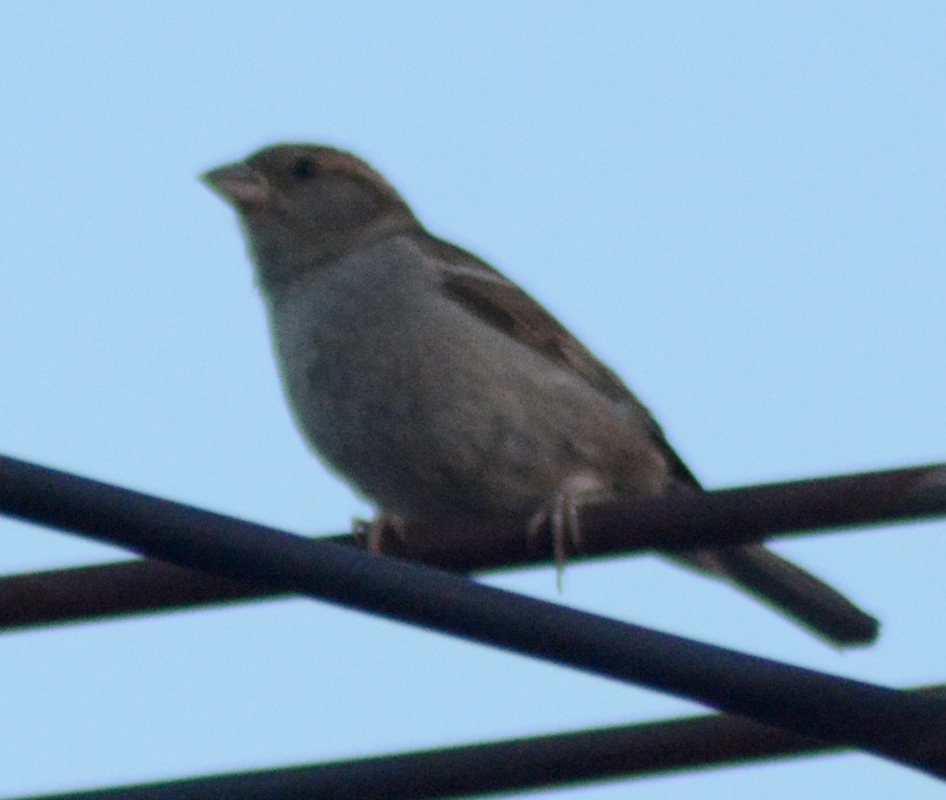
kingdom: Animalia
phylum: Chordata
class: Aves
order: Passeriformes
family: Passeridae
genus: Passer
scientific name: Passer domesticus
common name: House sparrow
